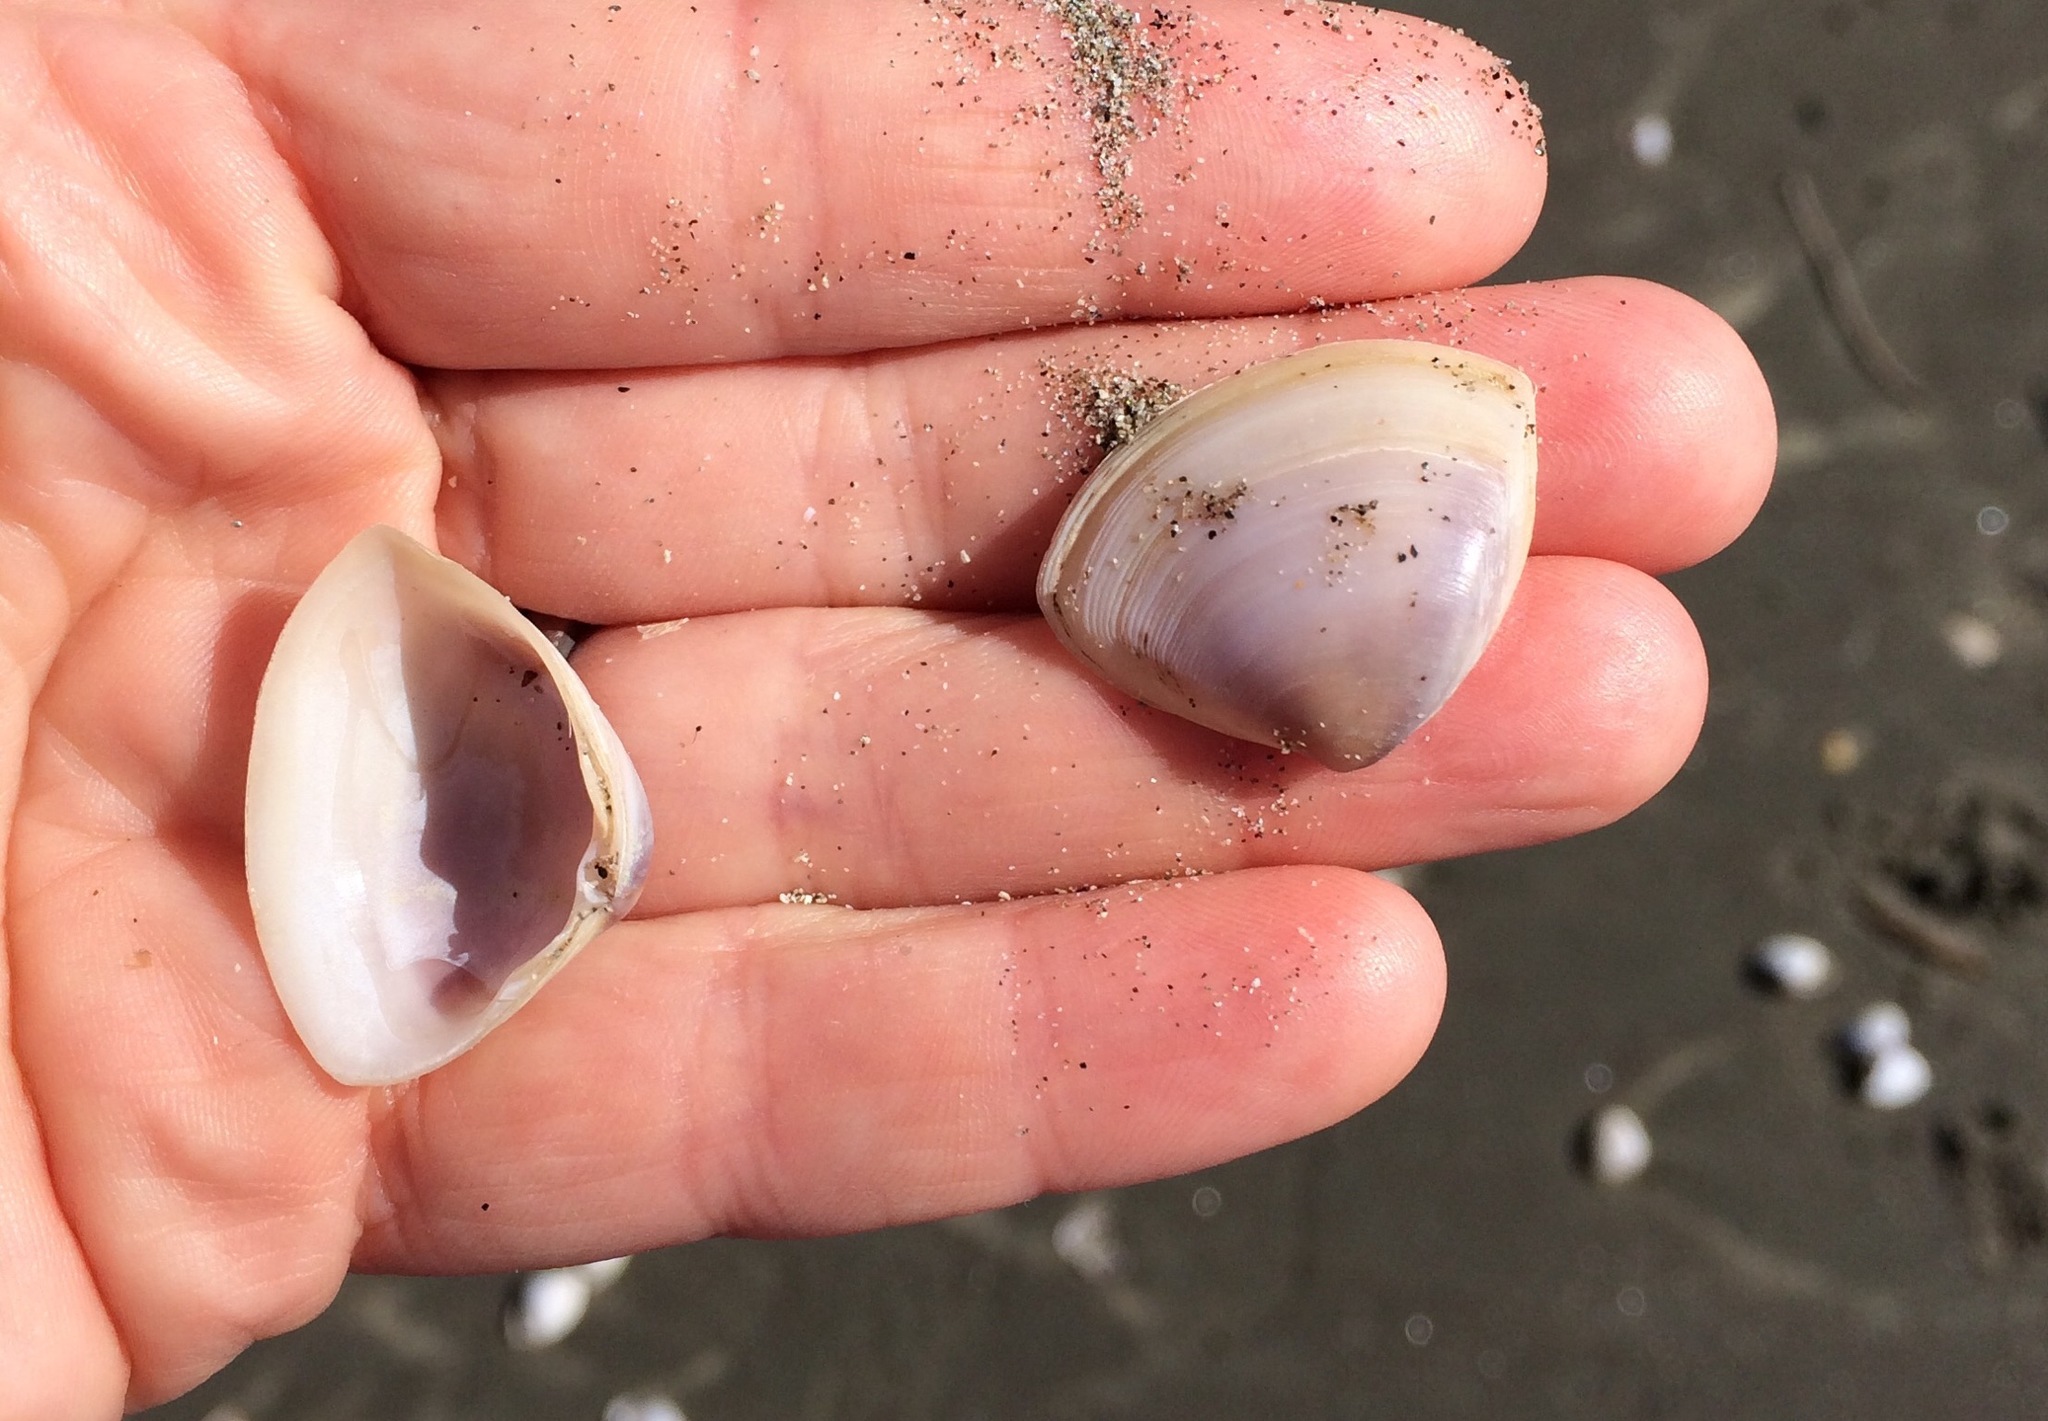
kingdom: Animalia
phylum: Mollusca
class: Bivalvia
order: Venerida
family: Mactridae
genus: Crassula
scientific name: Crassula aequilatera
